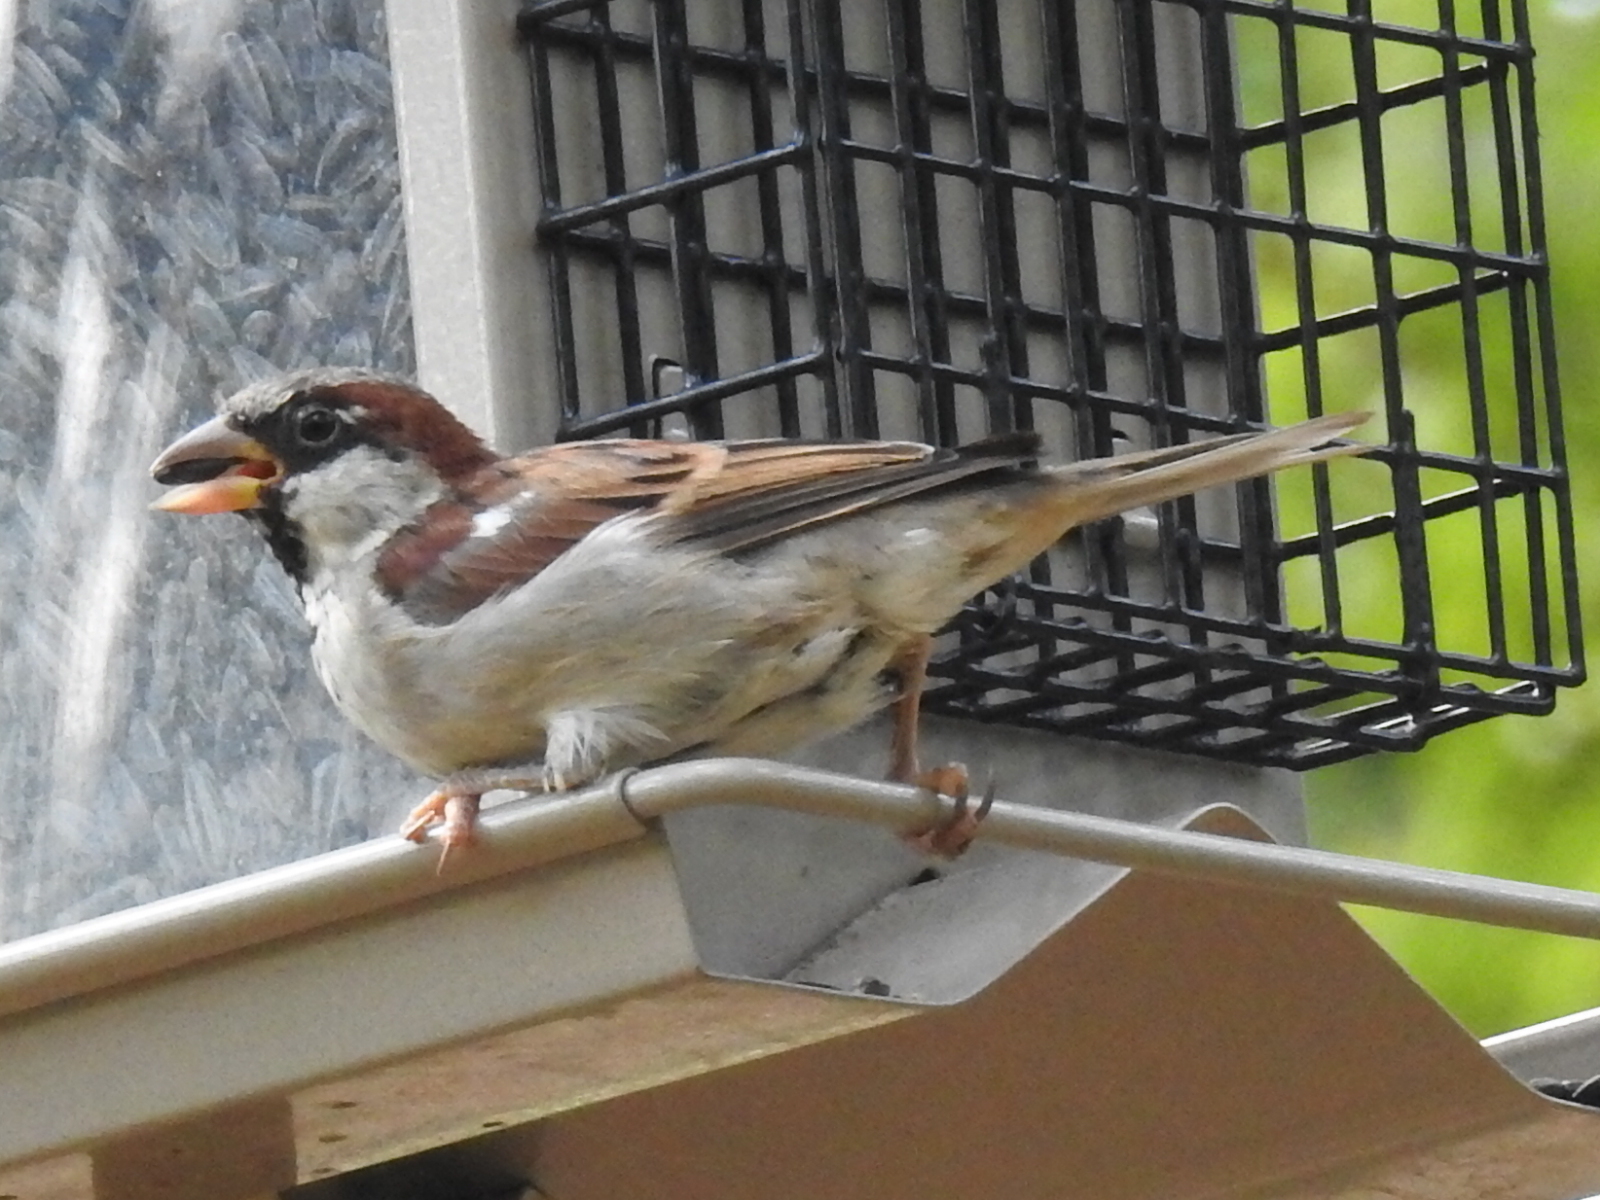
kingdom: Animalia
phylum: Chordata
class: Aves
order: Passeriformes
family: Passeridae
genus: Passer
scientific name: Passer domesticus
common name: House sparrow
